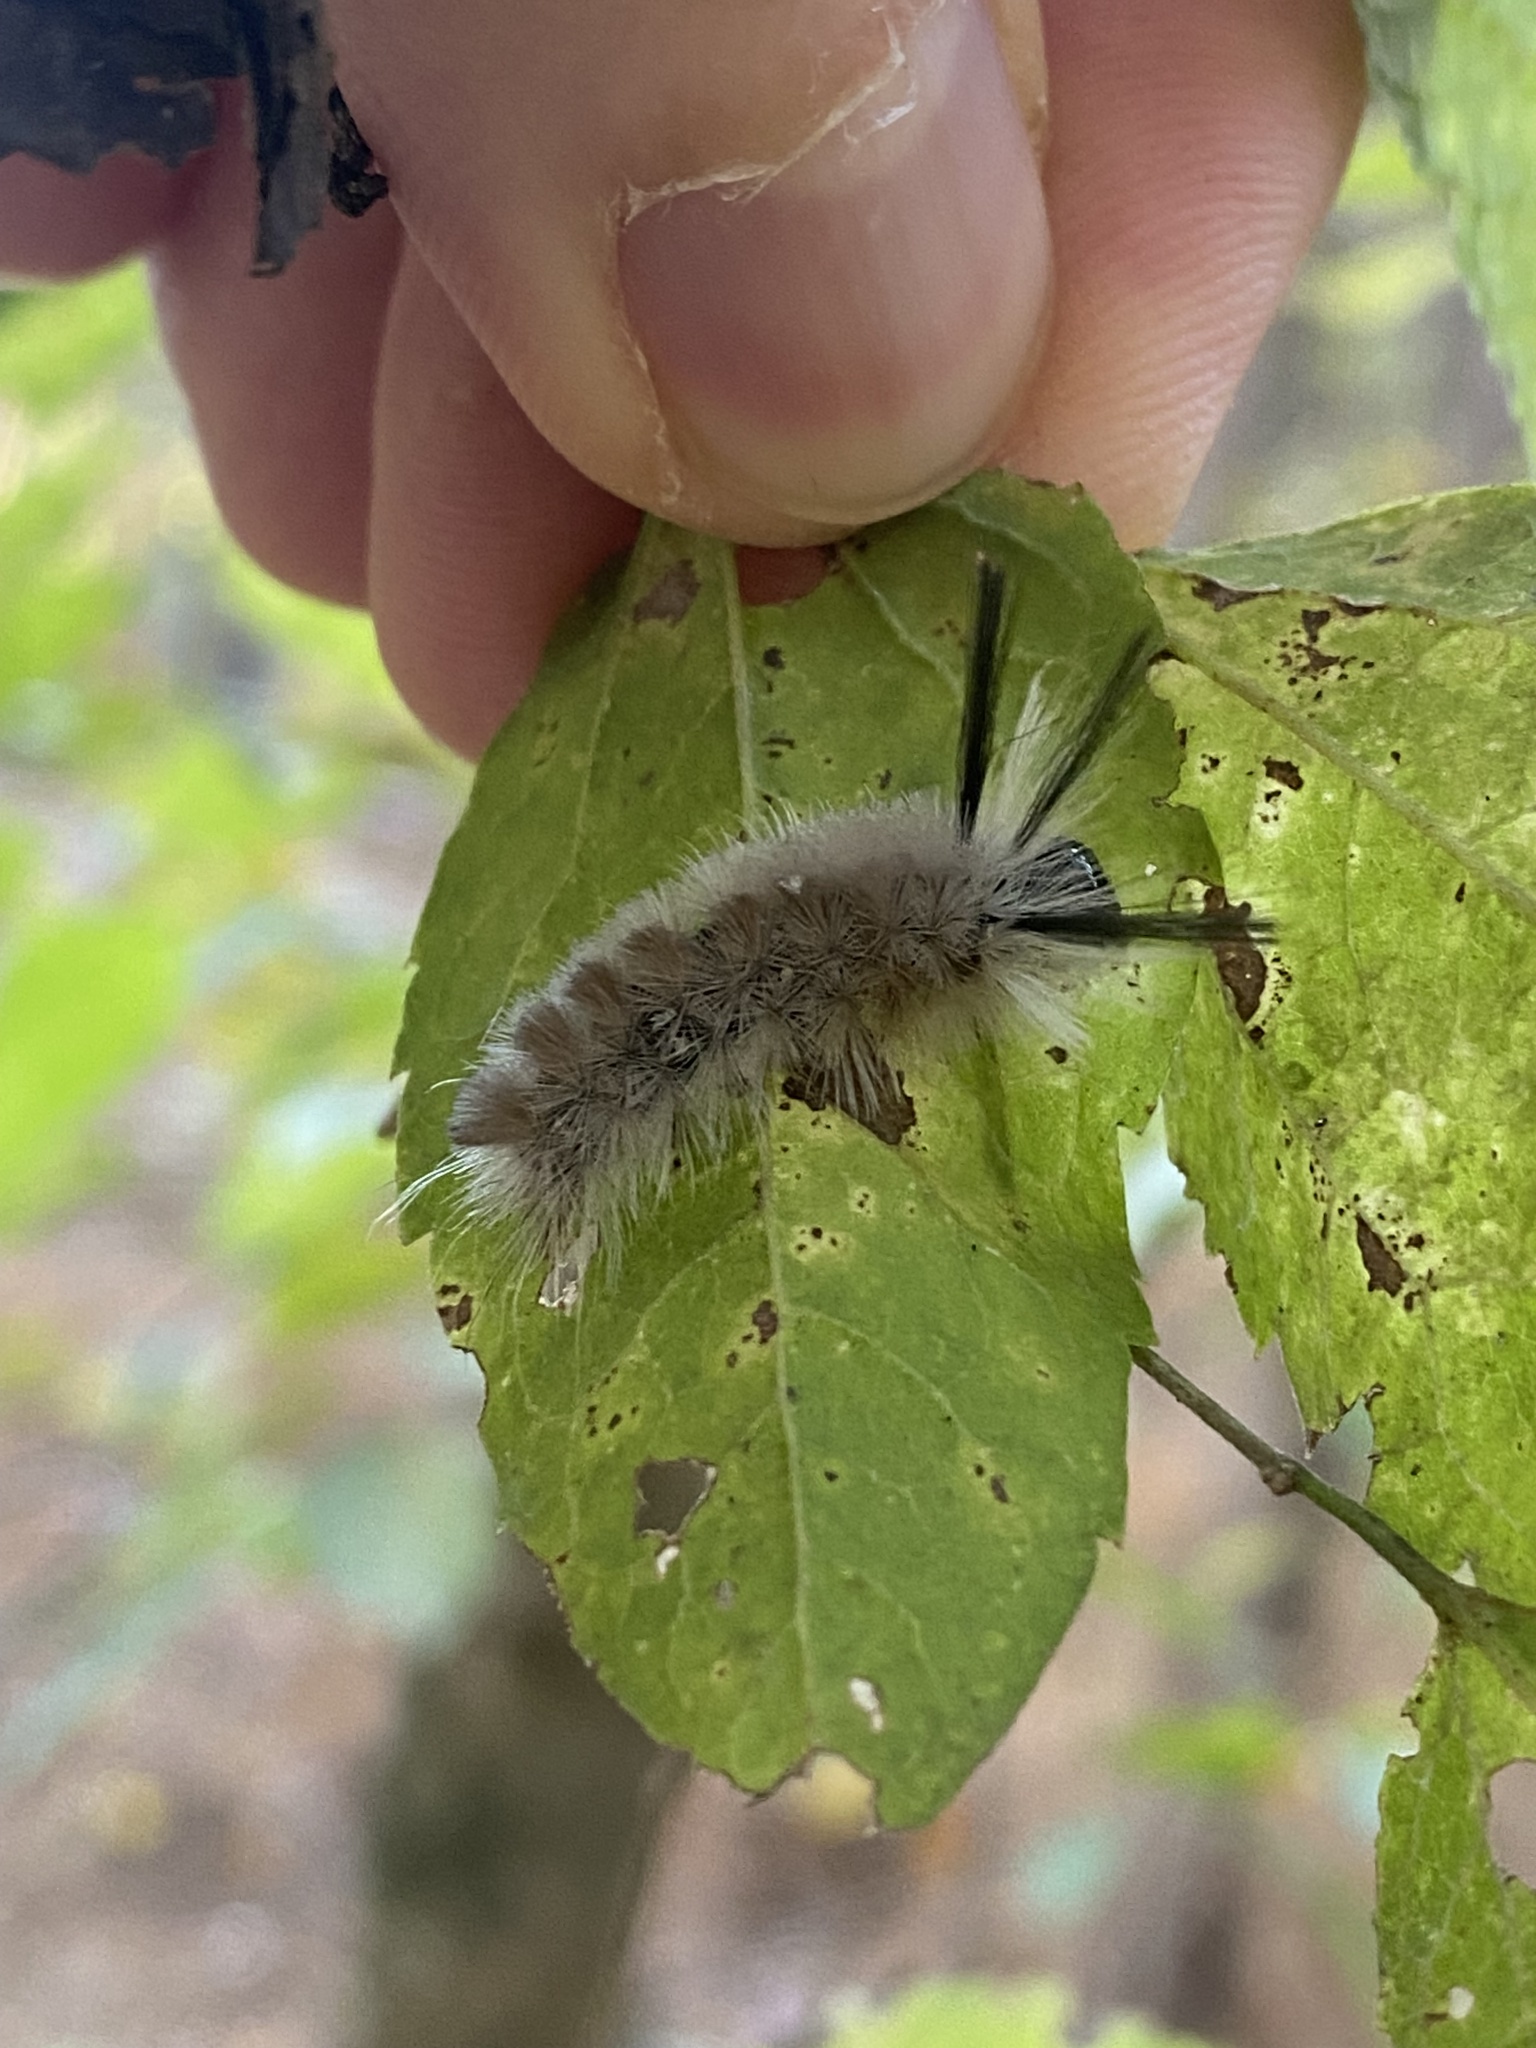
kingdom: Animalia
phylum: Arthropoda
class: Insecta
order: Lepidoptera
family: Erebidae
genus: Halysidota
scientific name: Halysidota tessellaris
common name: Banded tussock moth
